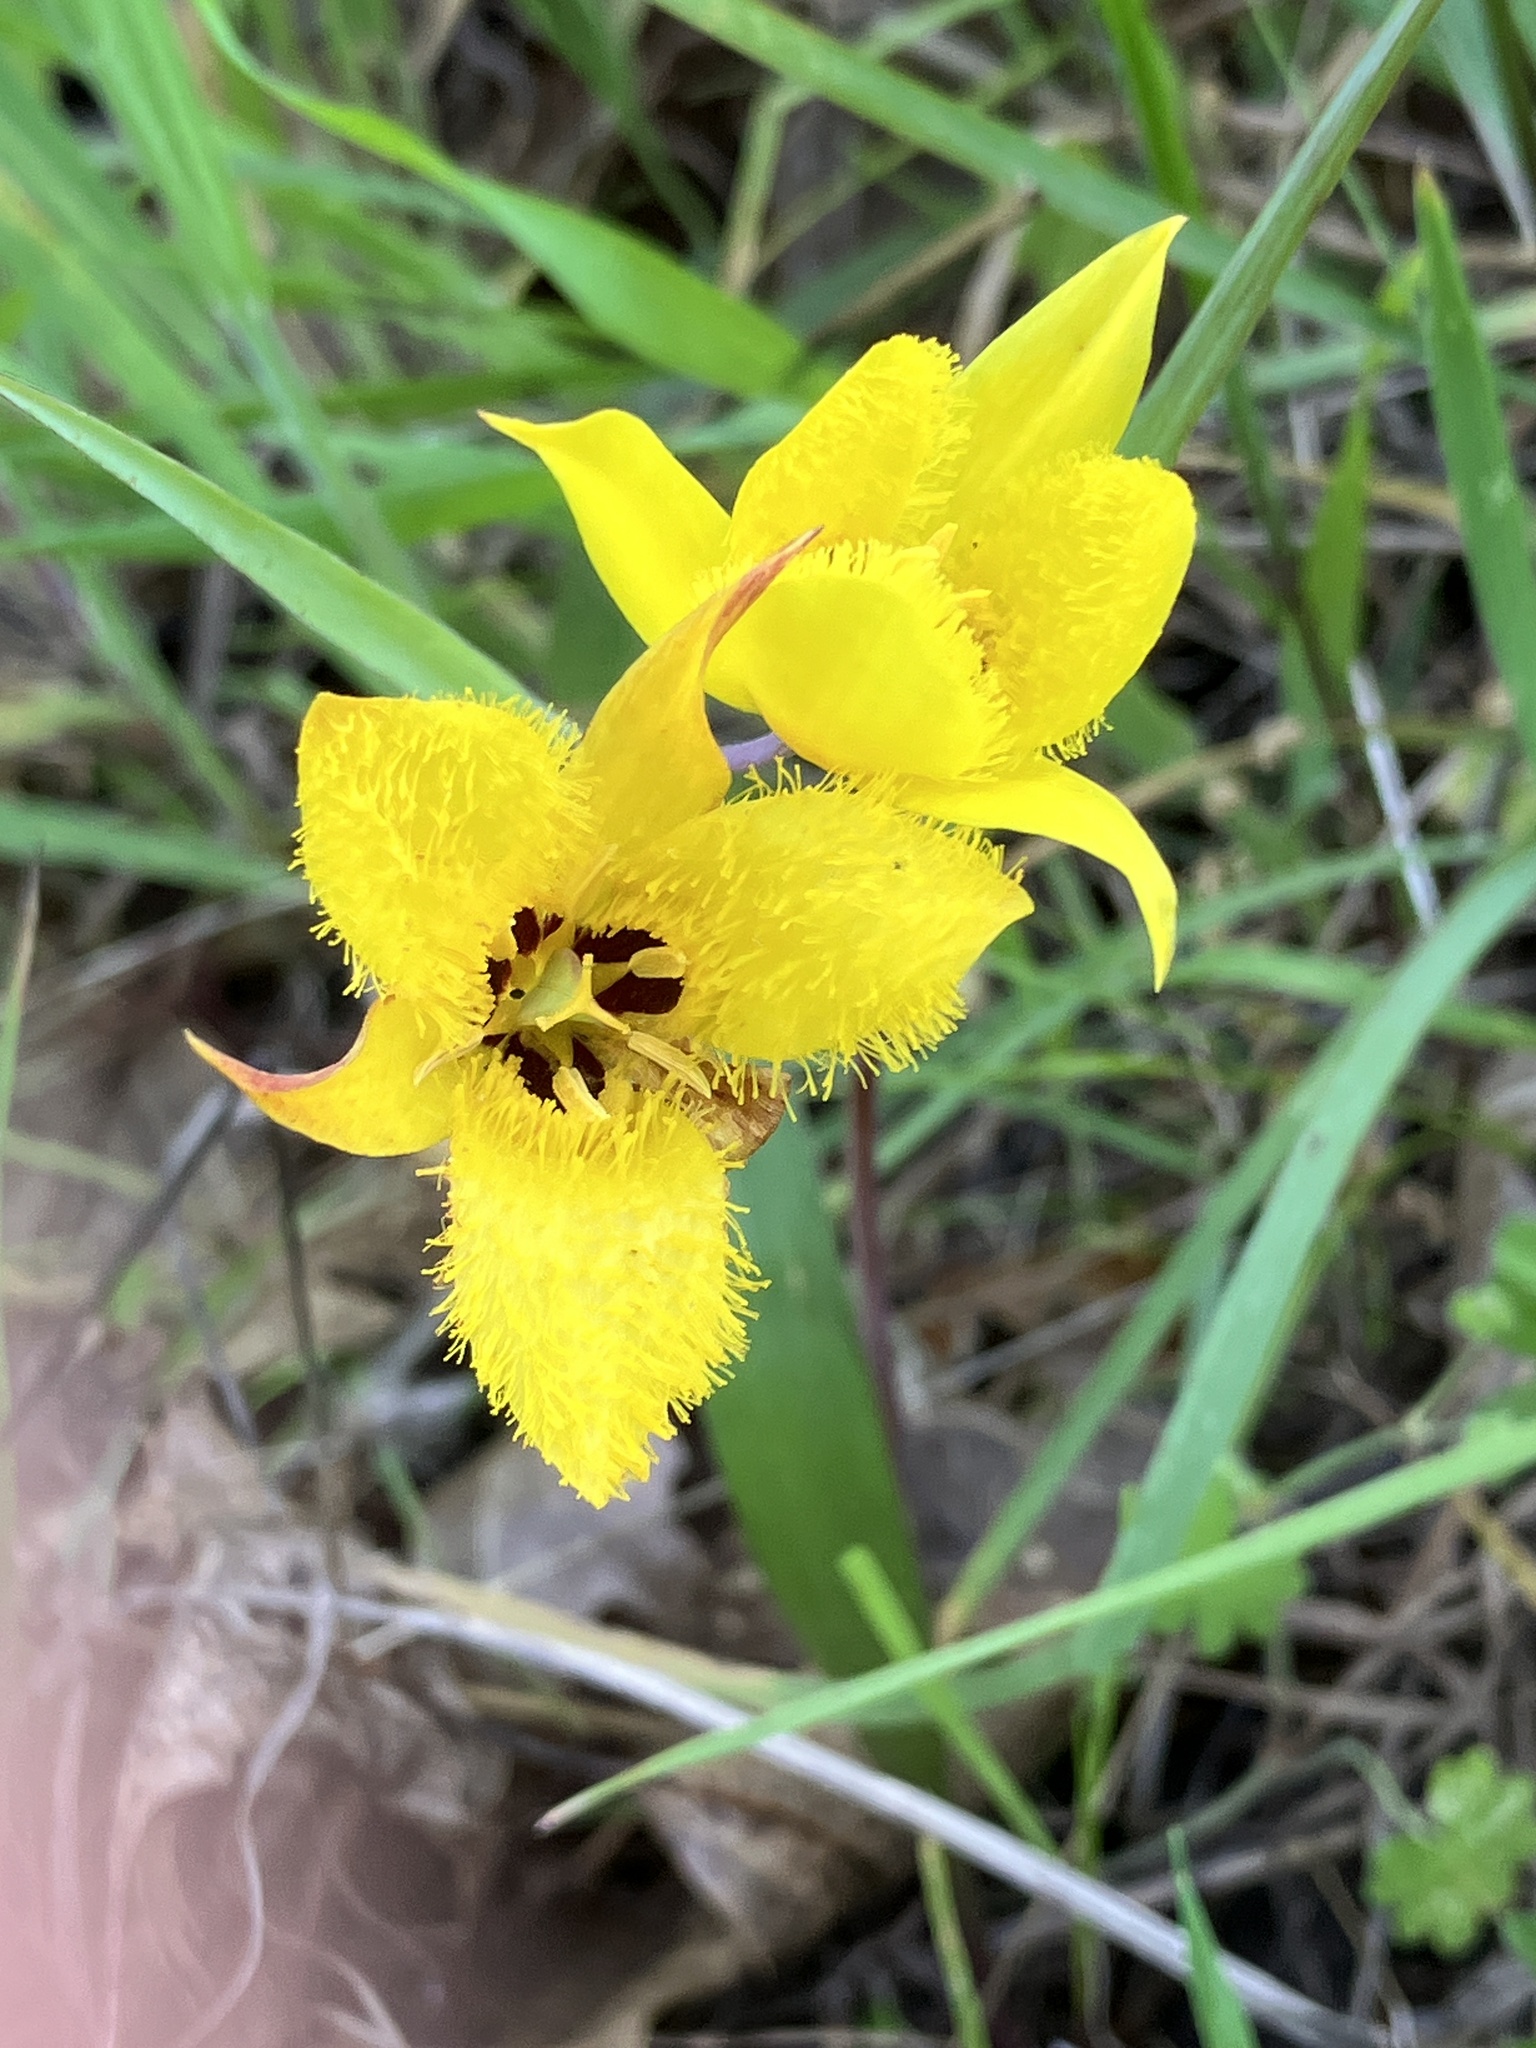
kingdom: Plantae
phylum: Tracheophyta
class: Liliopsida
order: Liliales
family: Liliaceae
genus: Calochortus
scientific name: Calochortus monophyllus
